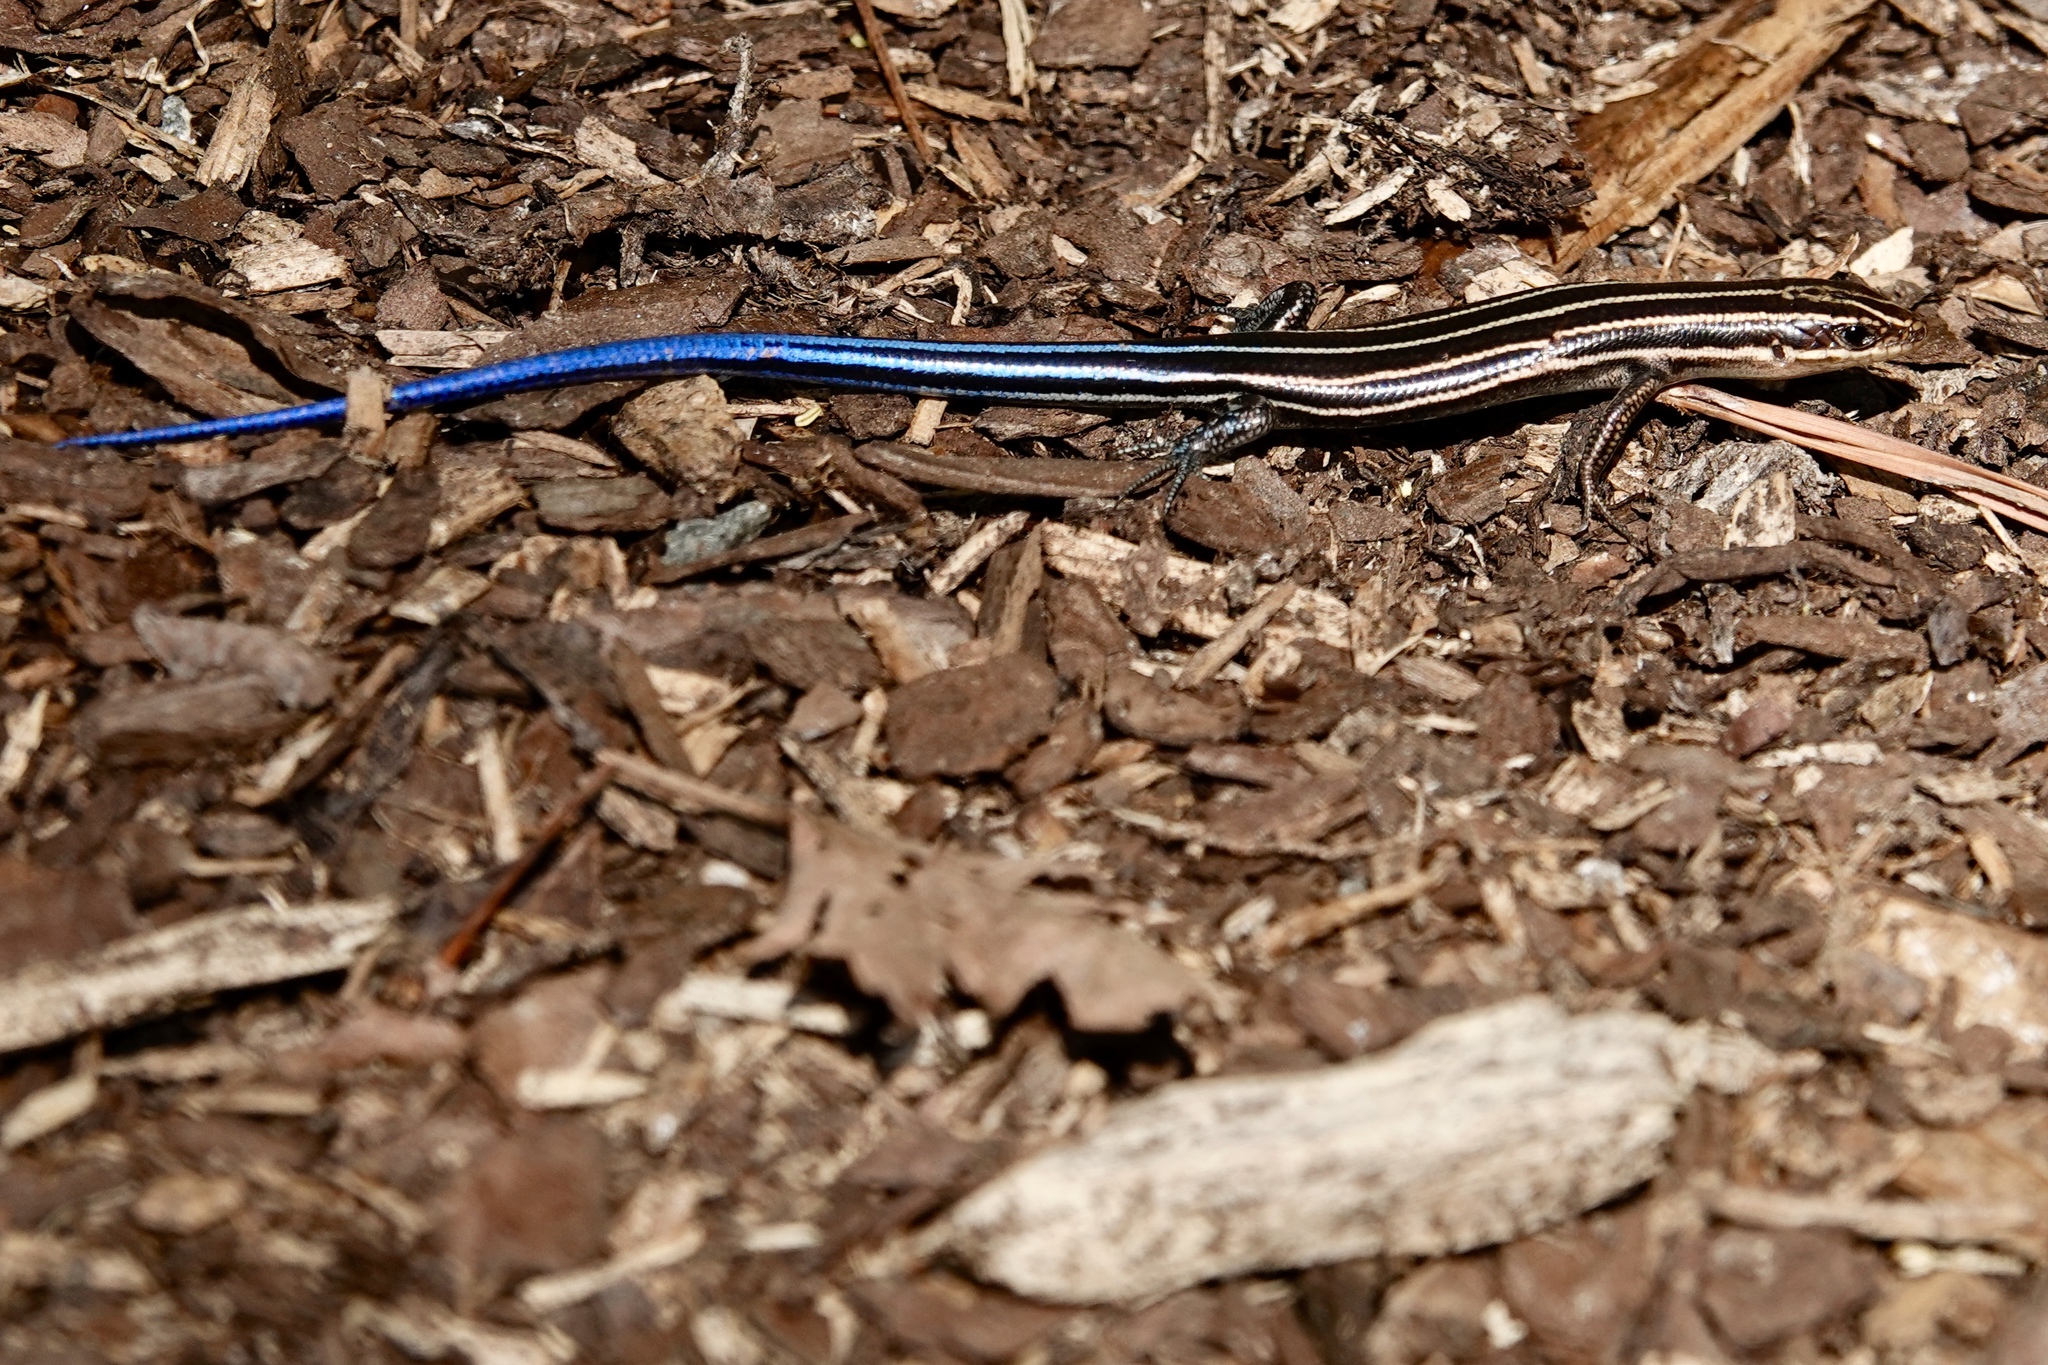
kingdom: Animalia
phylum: Chordata
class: Squamata
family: Scincidae
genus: Plestiodon
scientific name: Plestiodon fasciatus
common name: Five-lined skink
